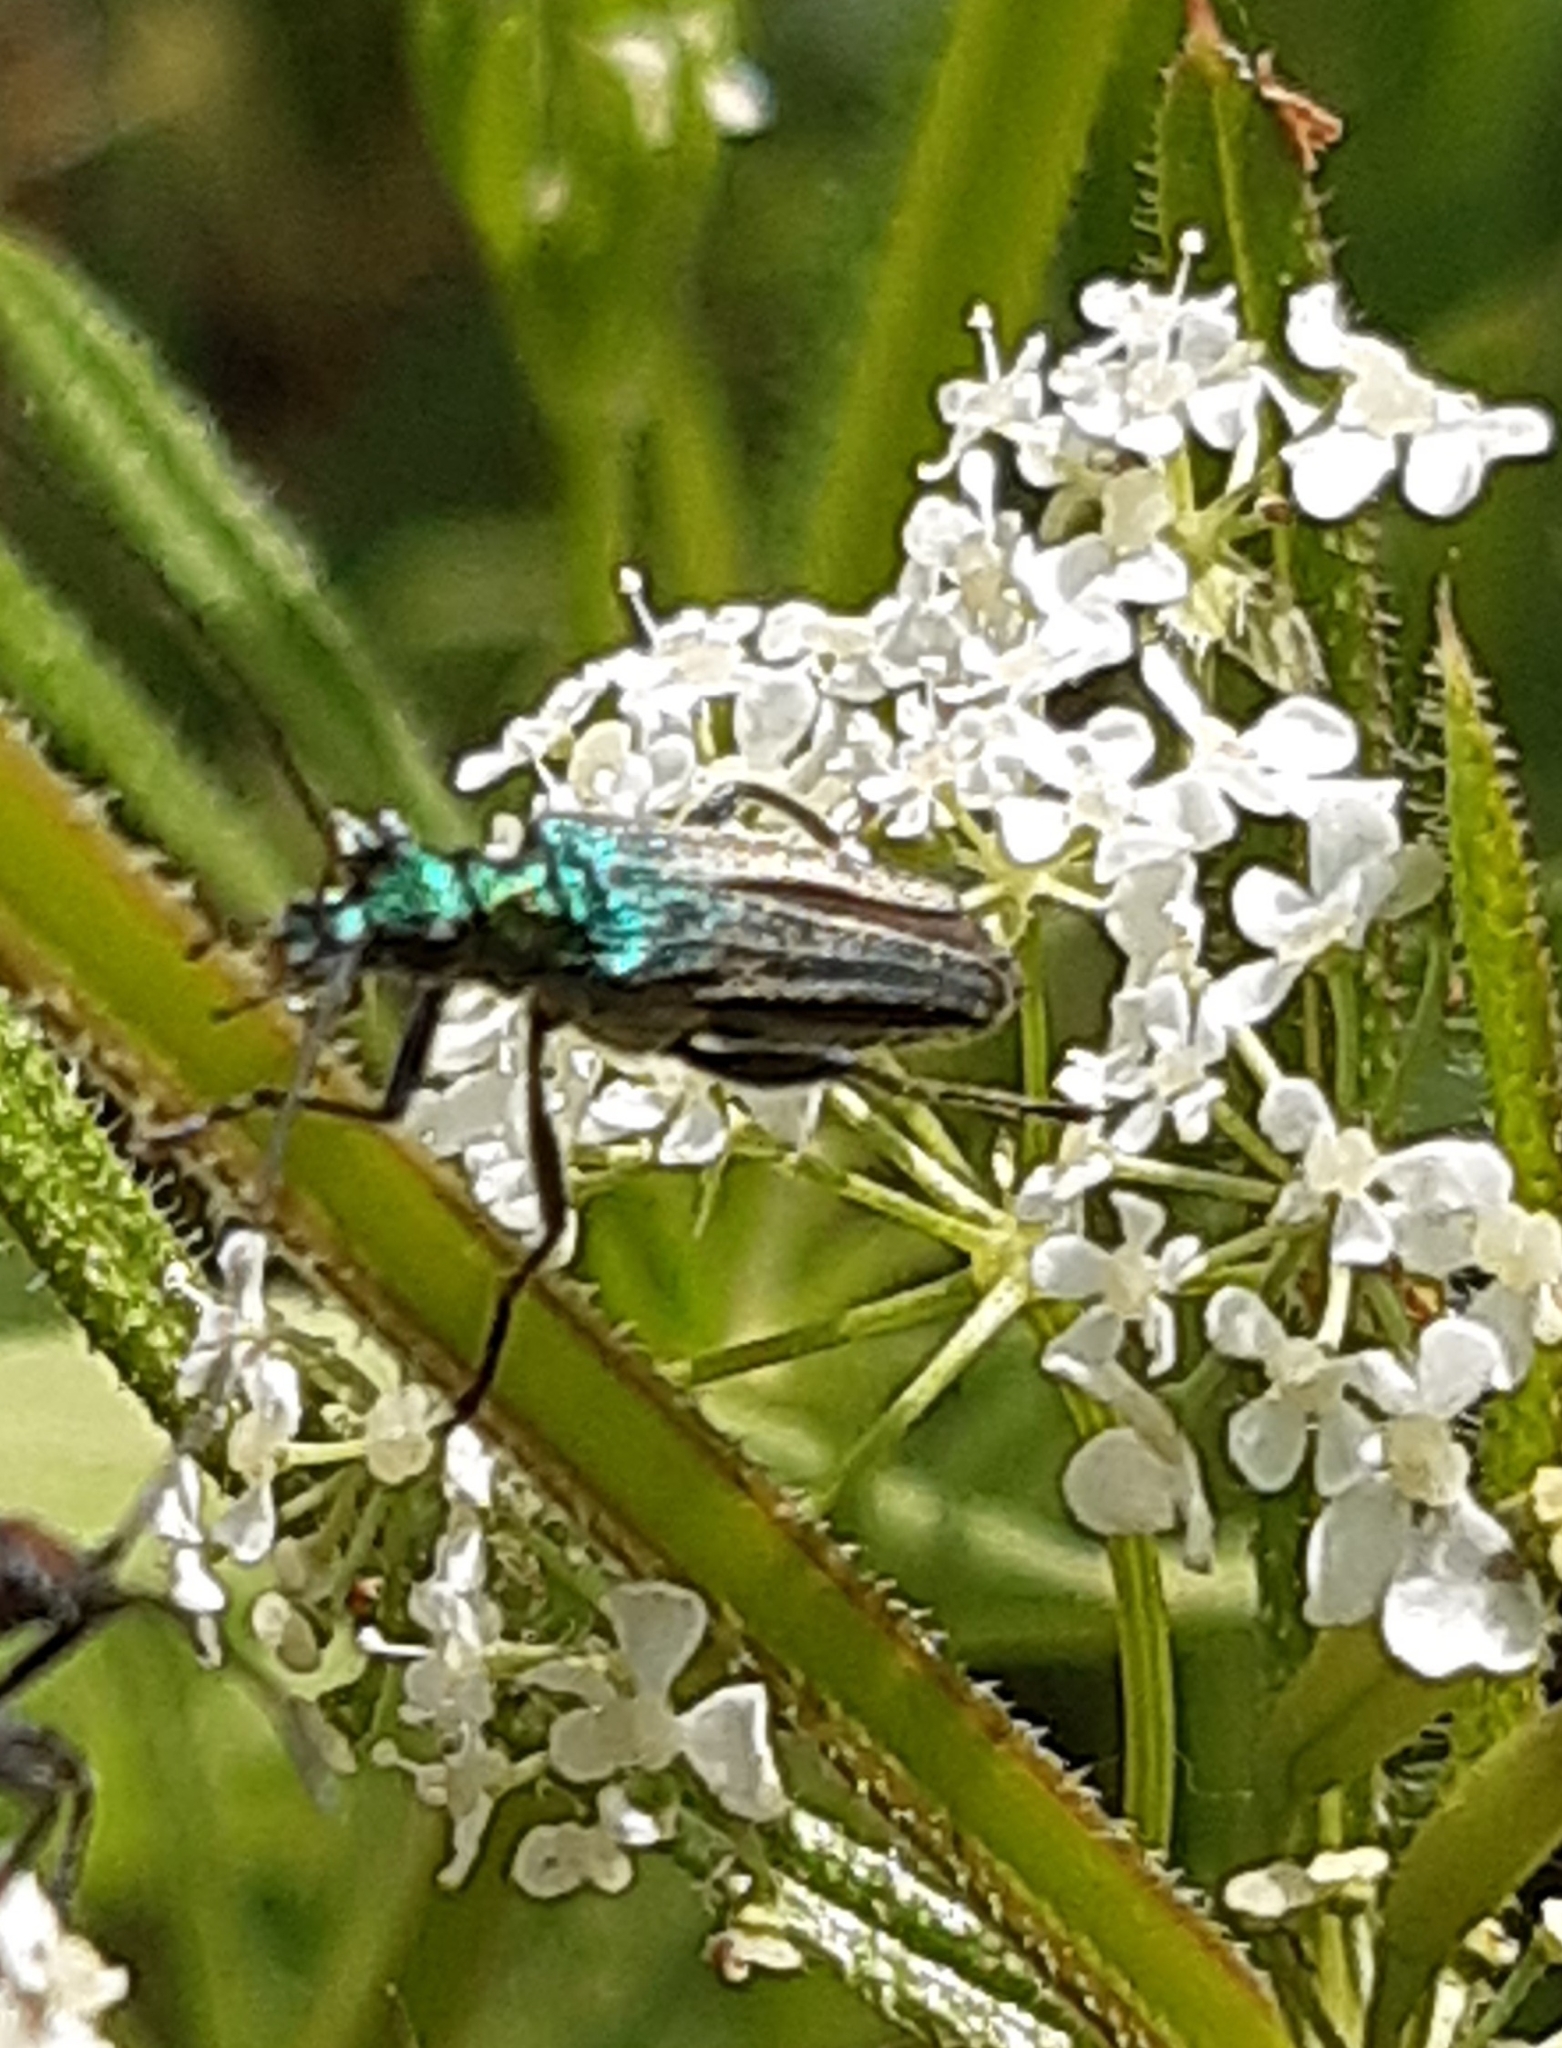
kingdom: Animalia
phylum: Arthropoda
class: Insecta
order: Coleoptera
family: Oedemeridae
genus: Oedemera
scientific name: Oedemera nobilis
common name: Swollen-thighed beetle
